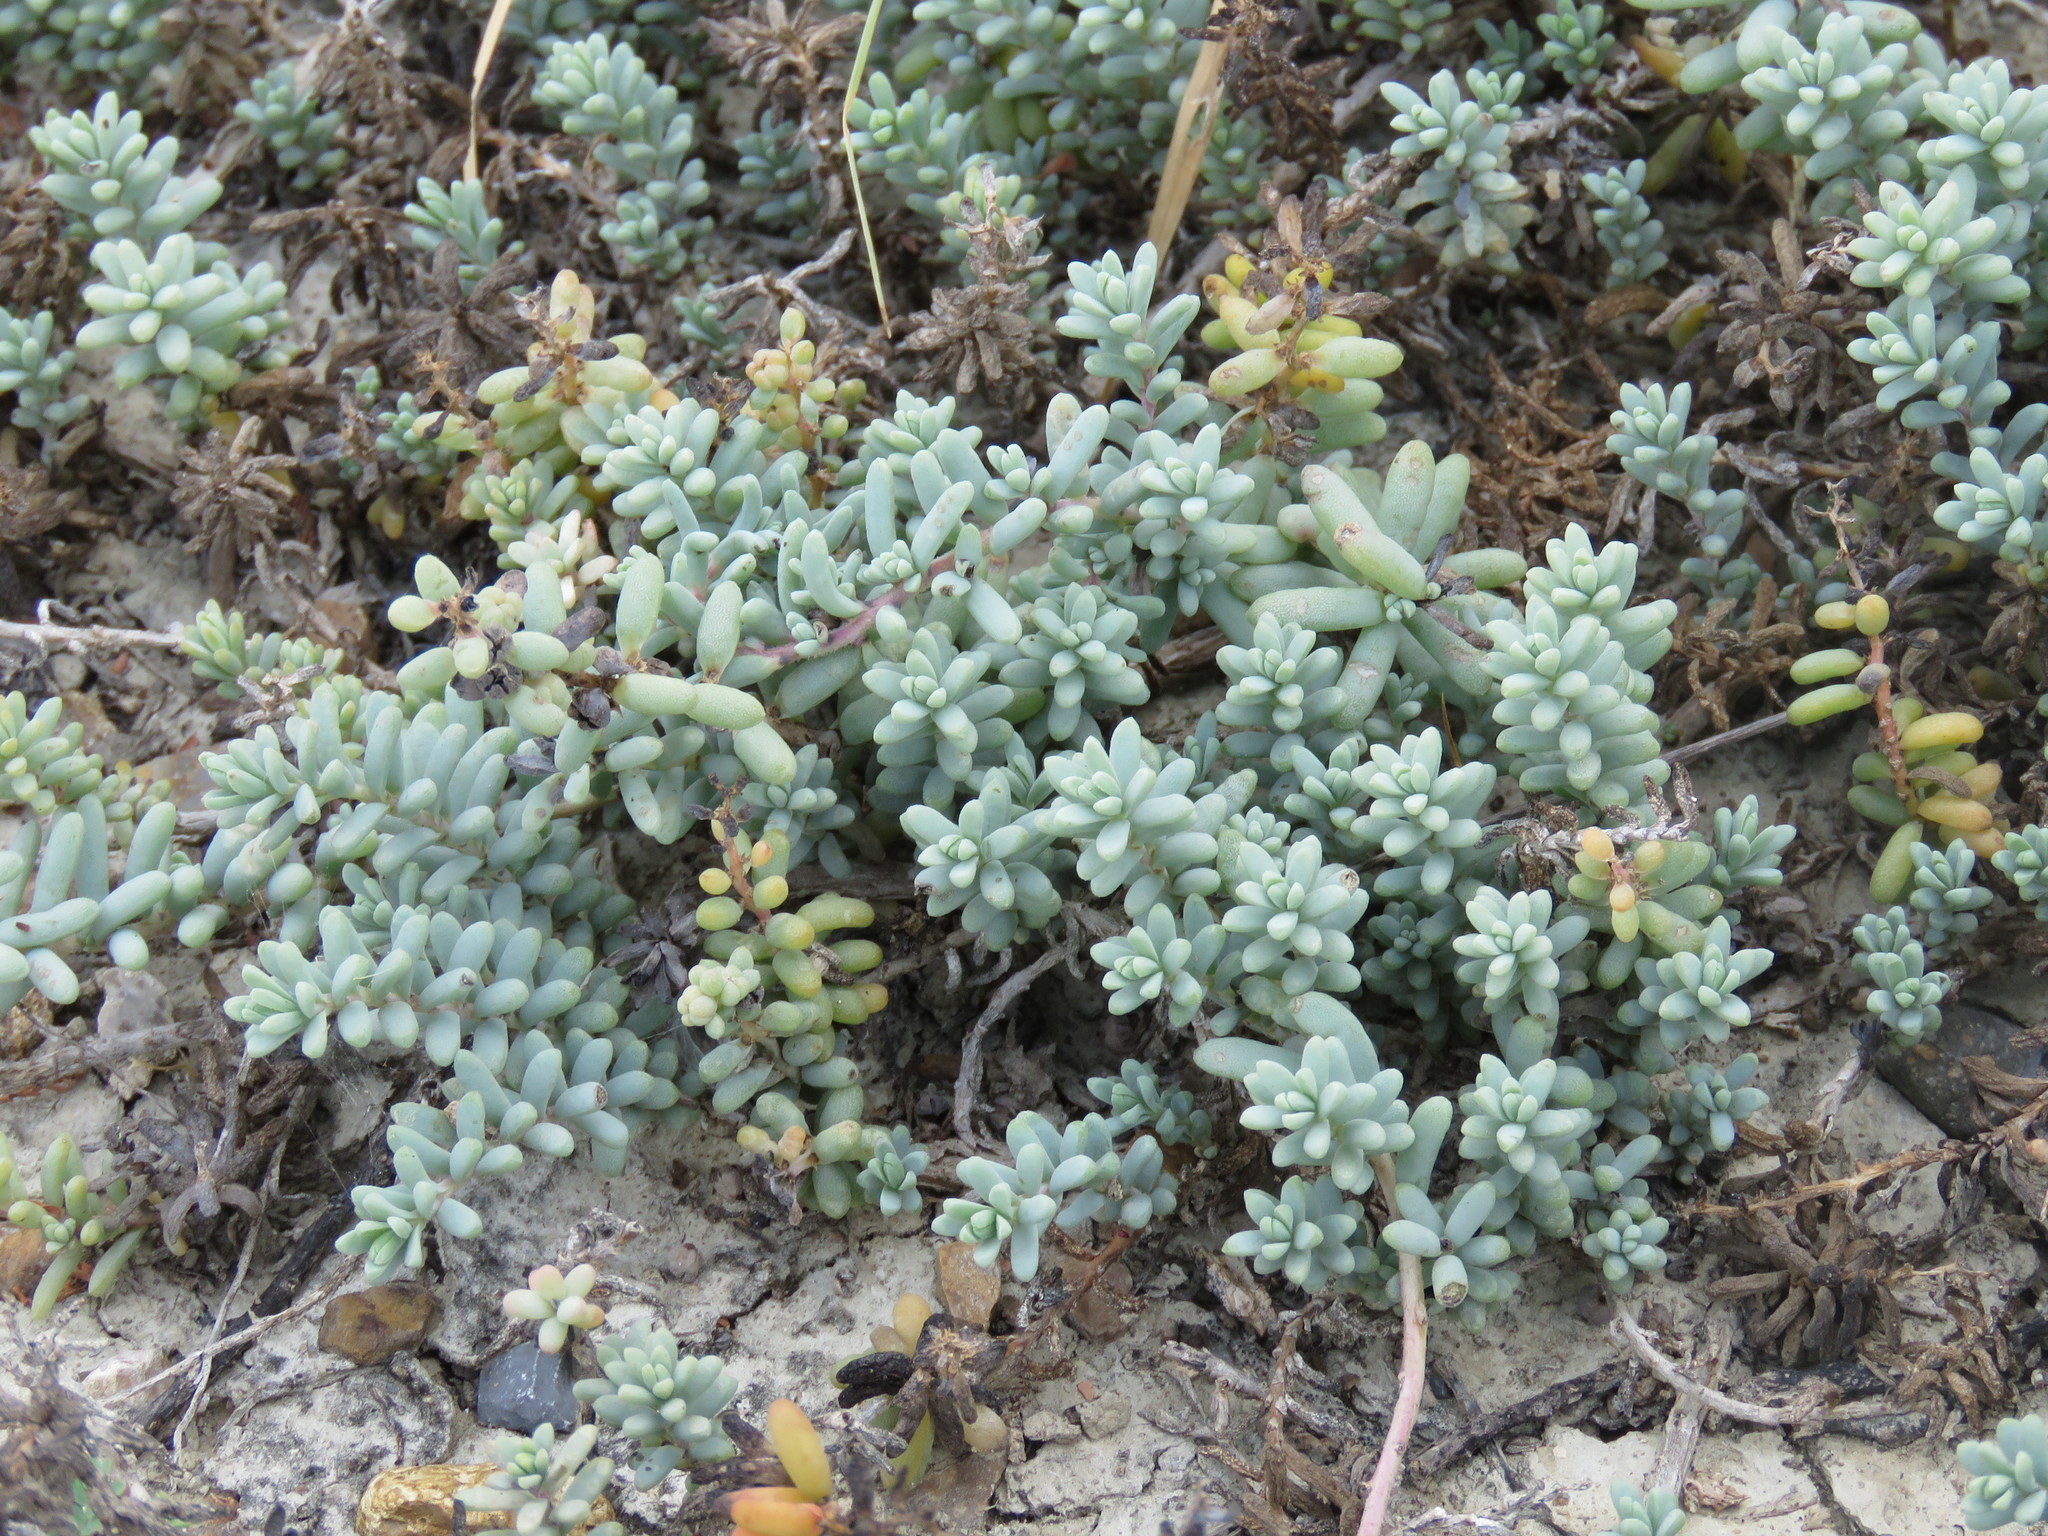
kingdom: Plantae
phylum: Tracheophyta
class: Magnoliopsida
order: Caryophyllales
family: Amaranthaceae
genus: Suaeda
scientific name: Suaeda conferta
